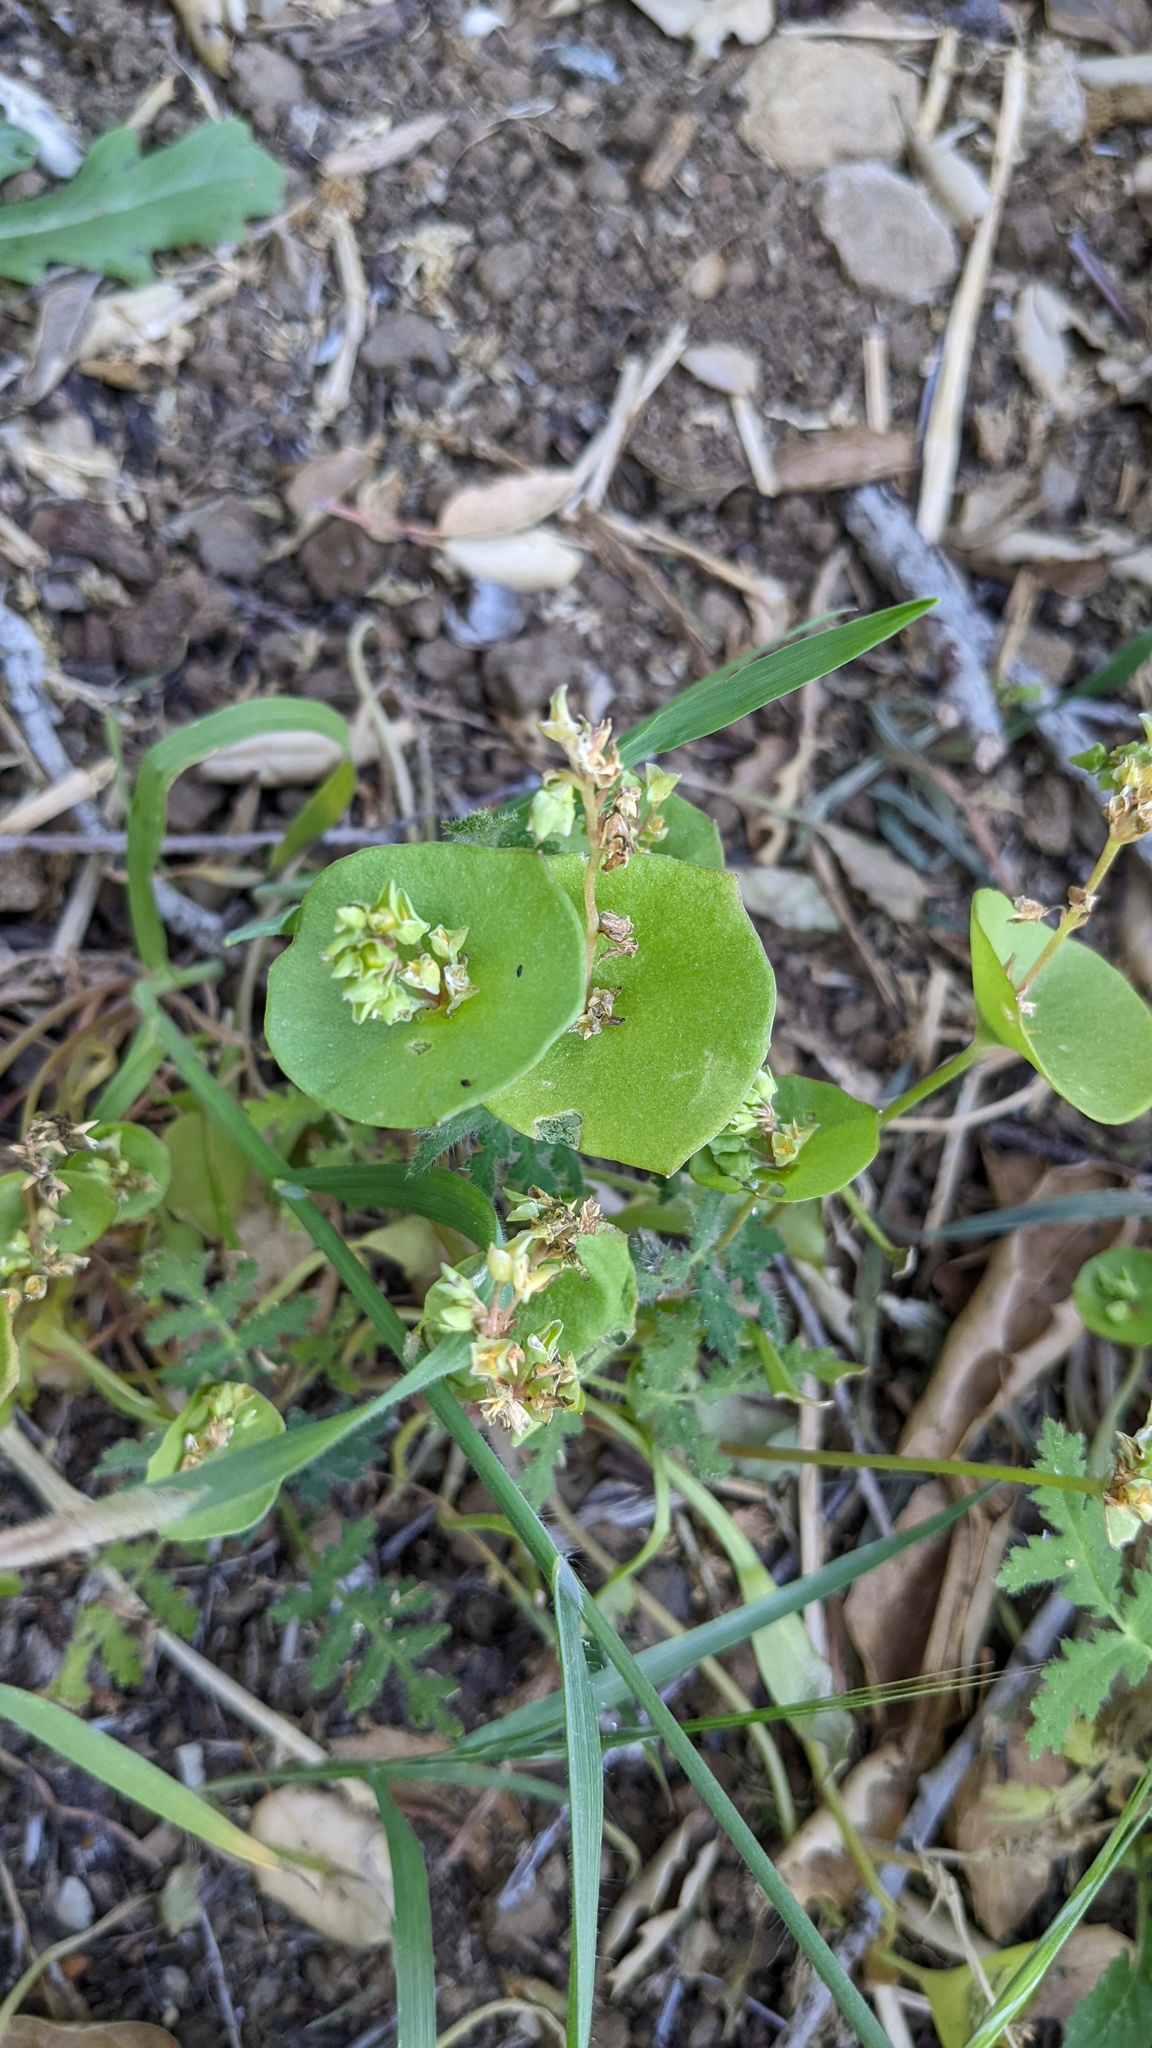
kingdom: Plantae
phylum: Tracheophyta
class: Magnoliopsida
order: Caryophyllales
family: Montiaceae
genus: Claytonia
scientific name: Claytonia perfoliata
